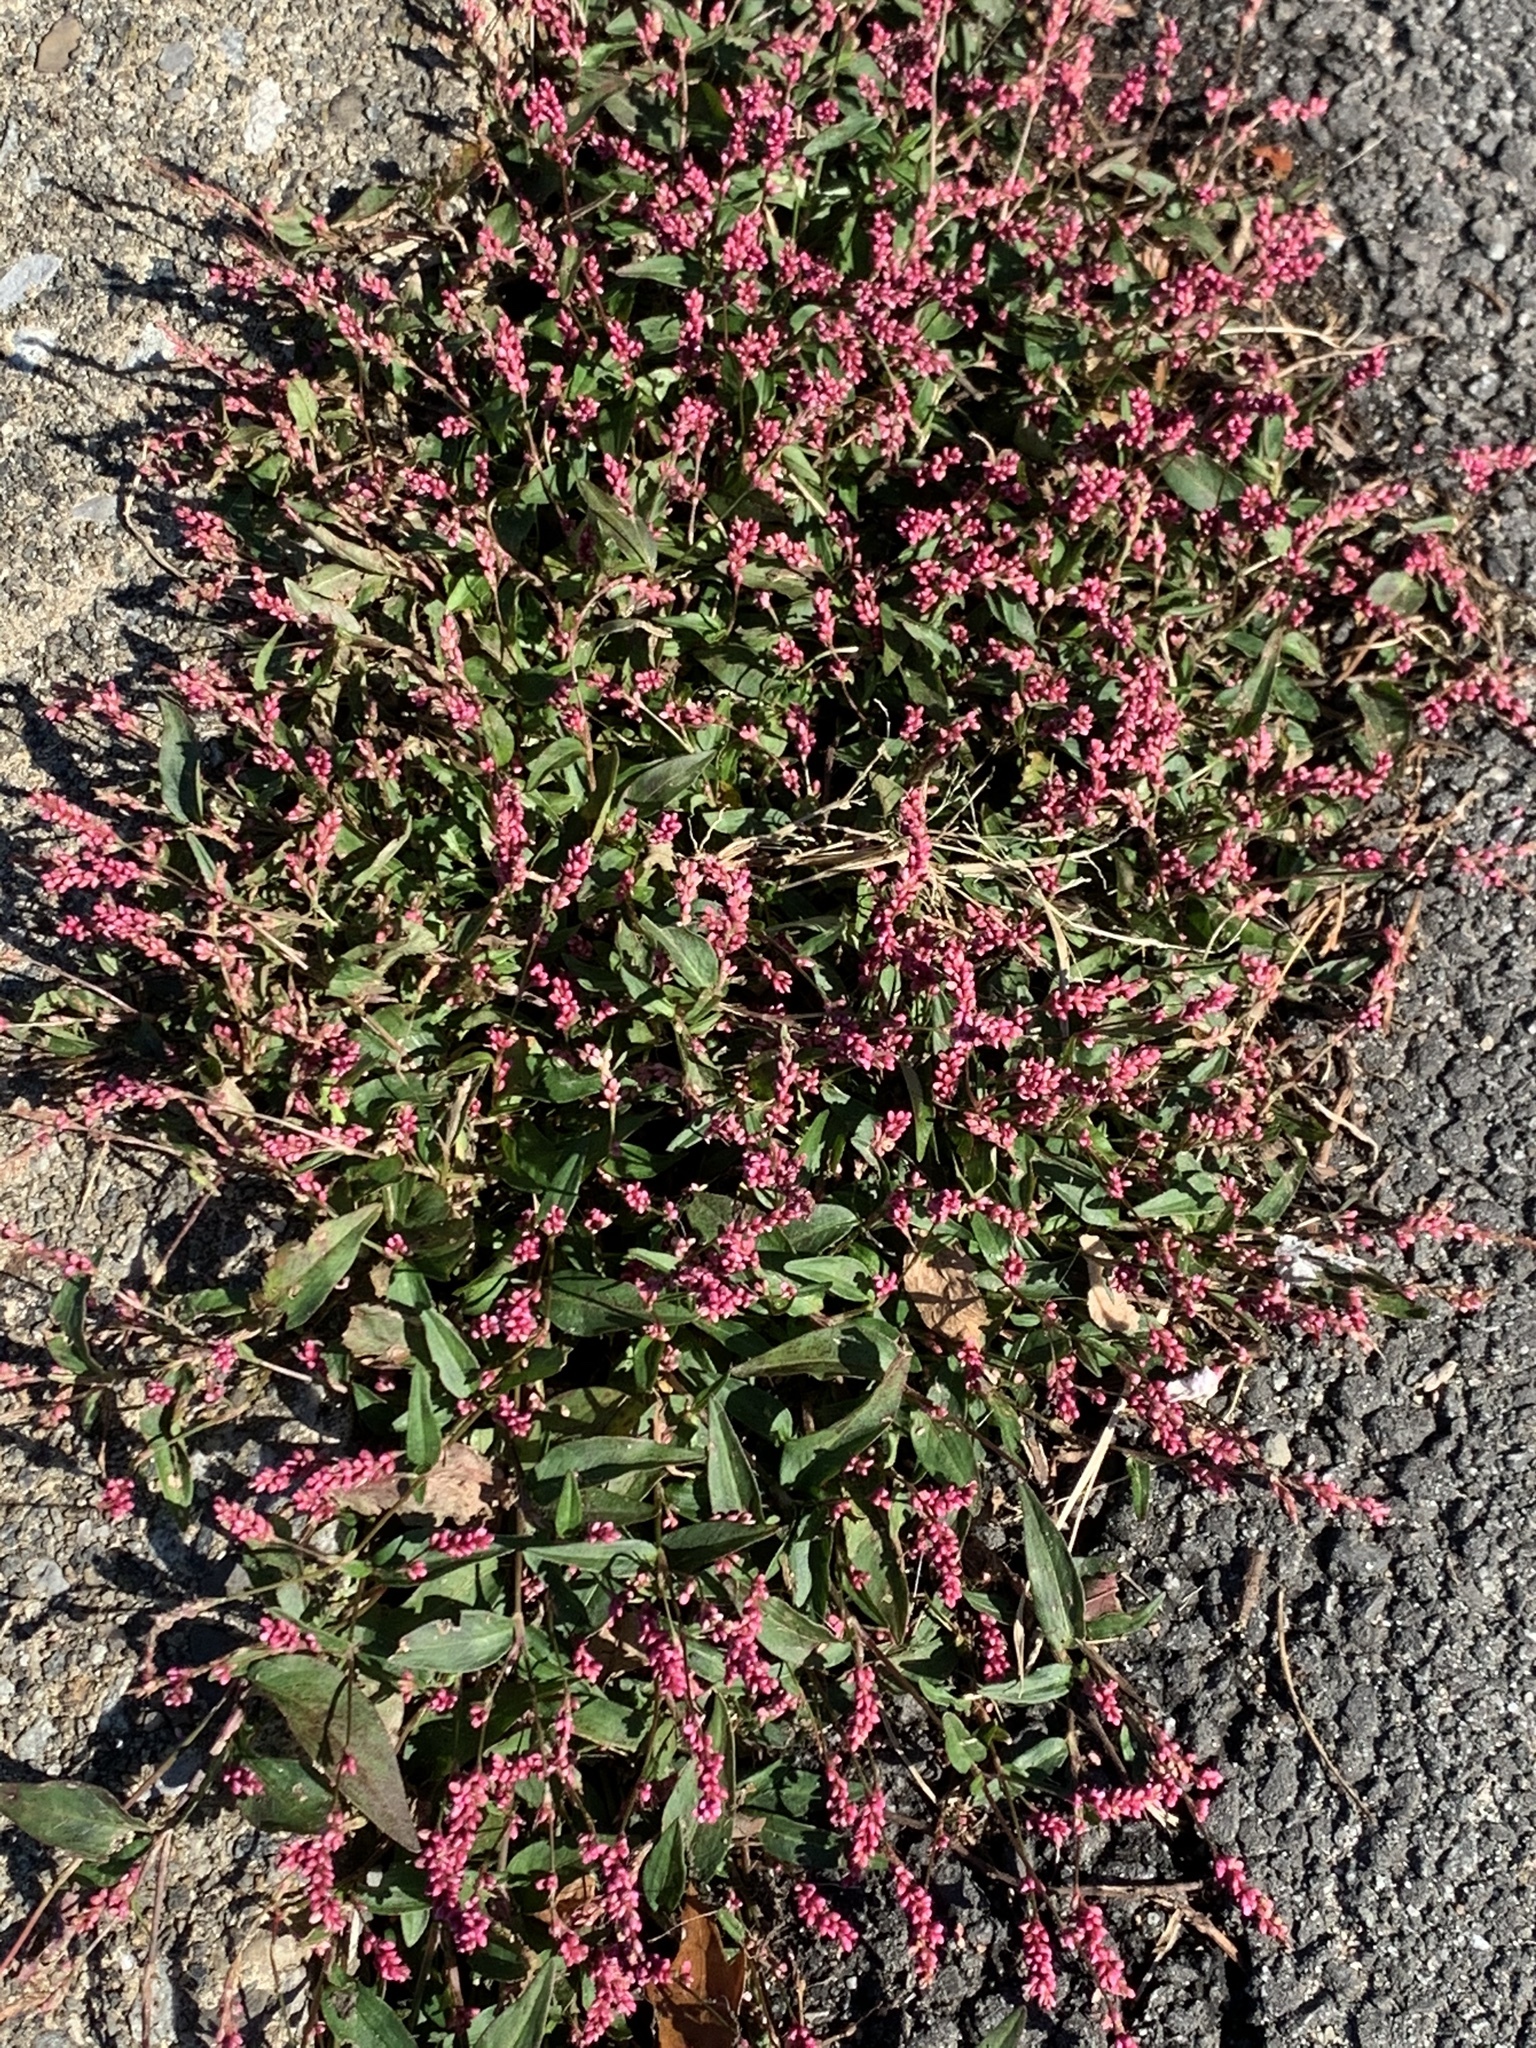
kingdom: Plantae
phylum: Tracheophyta
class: Magnoliopsida
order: Caryophyllales
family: Polygonaceae
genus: Persicaria
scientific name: Persicaria longiseta
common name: Bristly lady's-thumb
